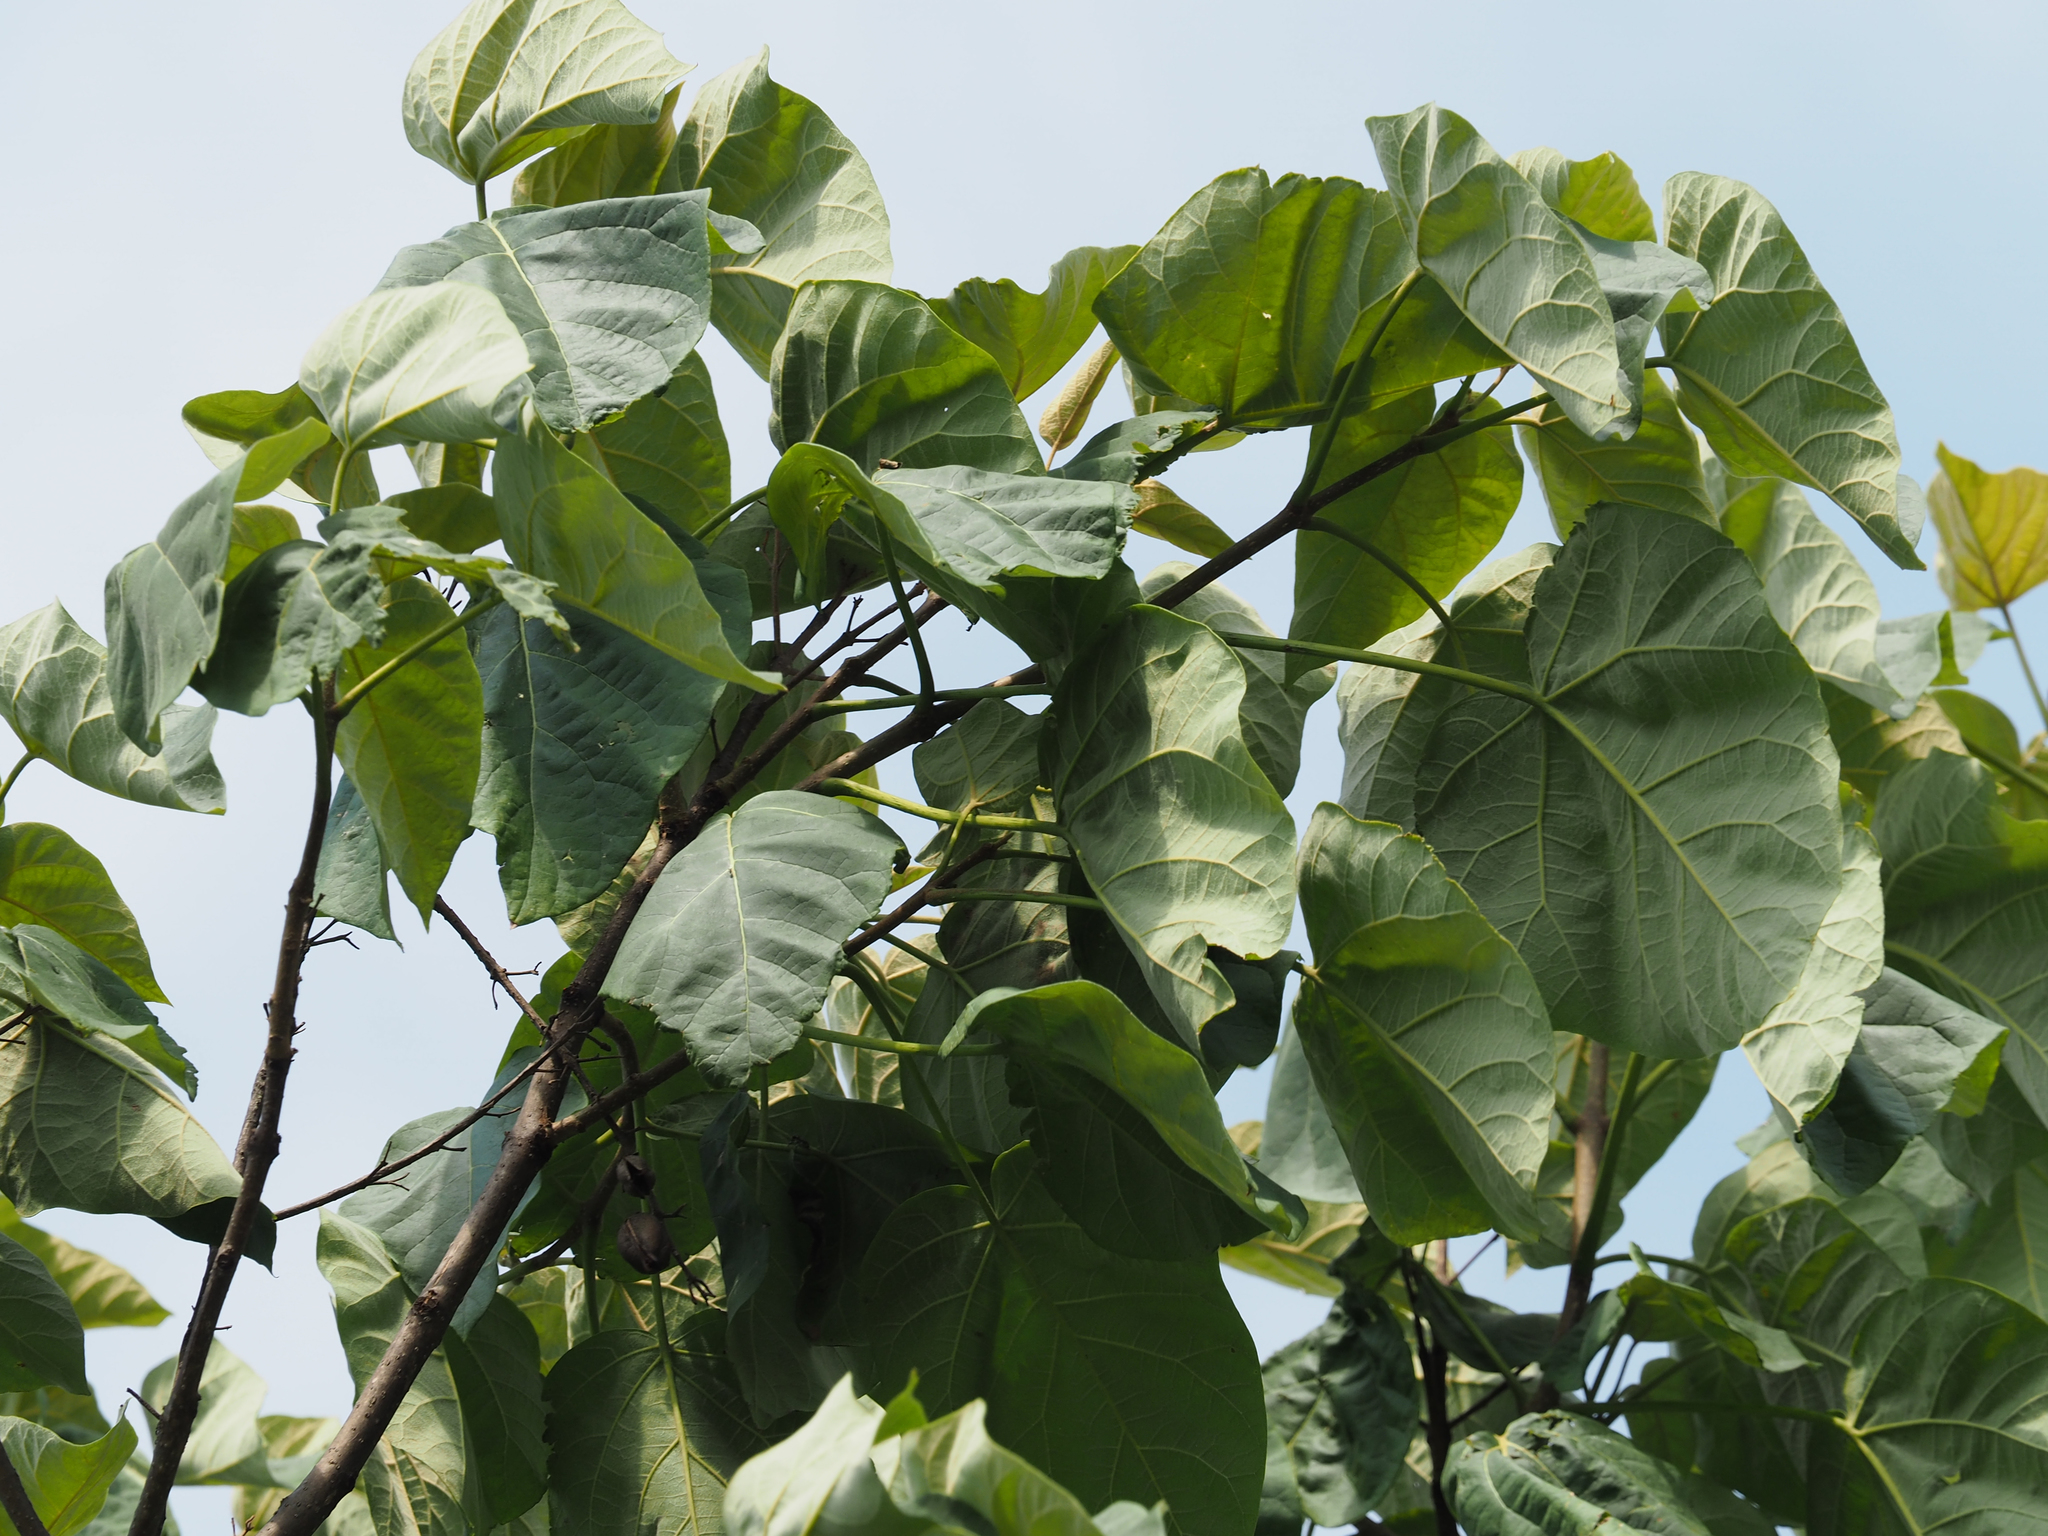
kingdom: Plantae
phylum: Tracheophyta
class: Magnoliopsida
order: Lamiales
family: Paulowniaceae
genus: Paulownia
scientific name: Paulownia tomentosa
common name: Foxglove-tree
